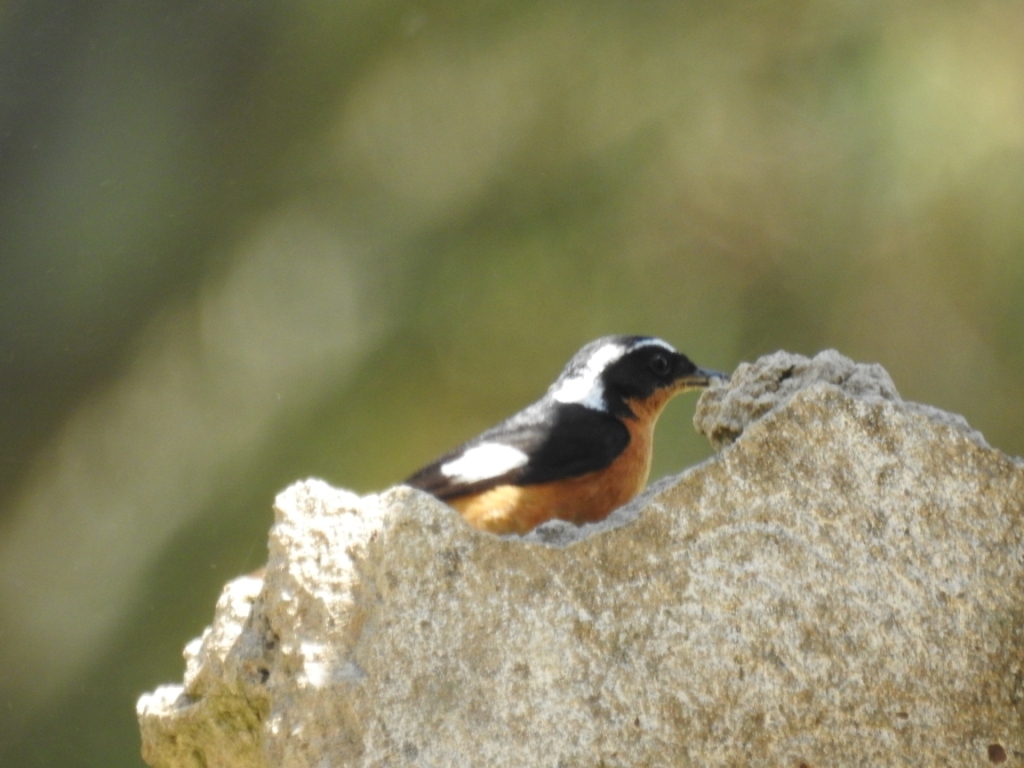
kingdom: Animalia
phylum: Chordata
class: Aves
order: Passeriformes
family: Muscicapidae
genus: Phoenicurus
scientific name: Phoenicurus moussieri
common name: Moussier's redstart
